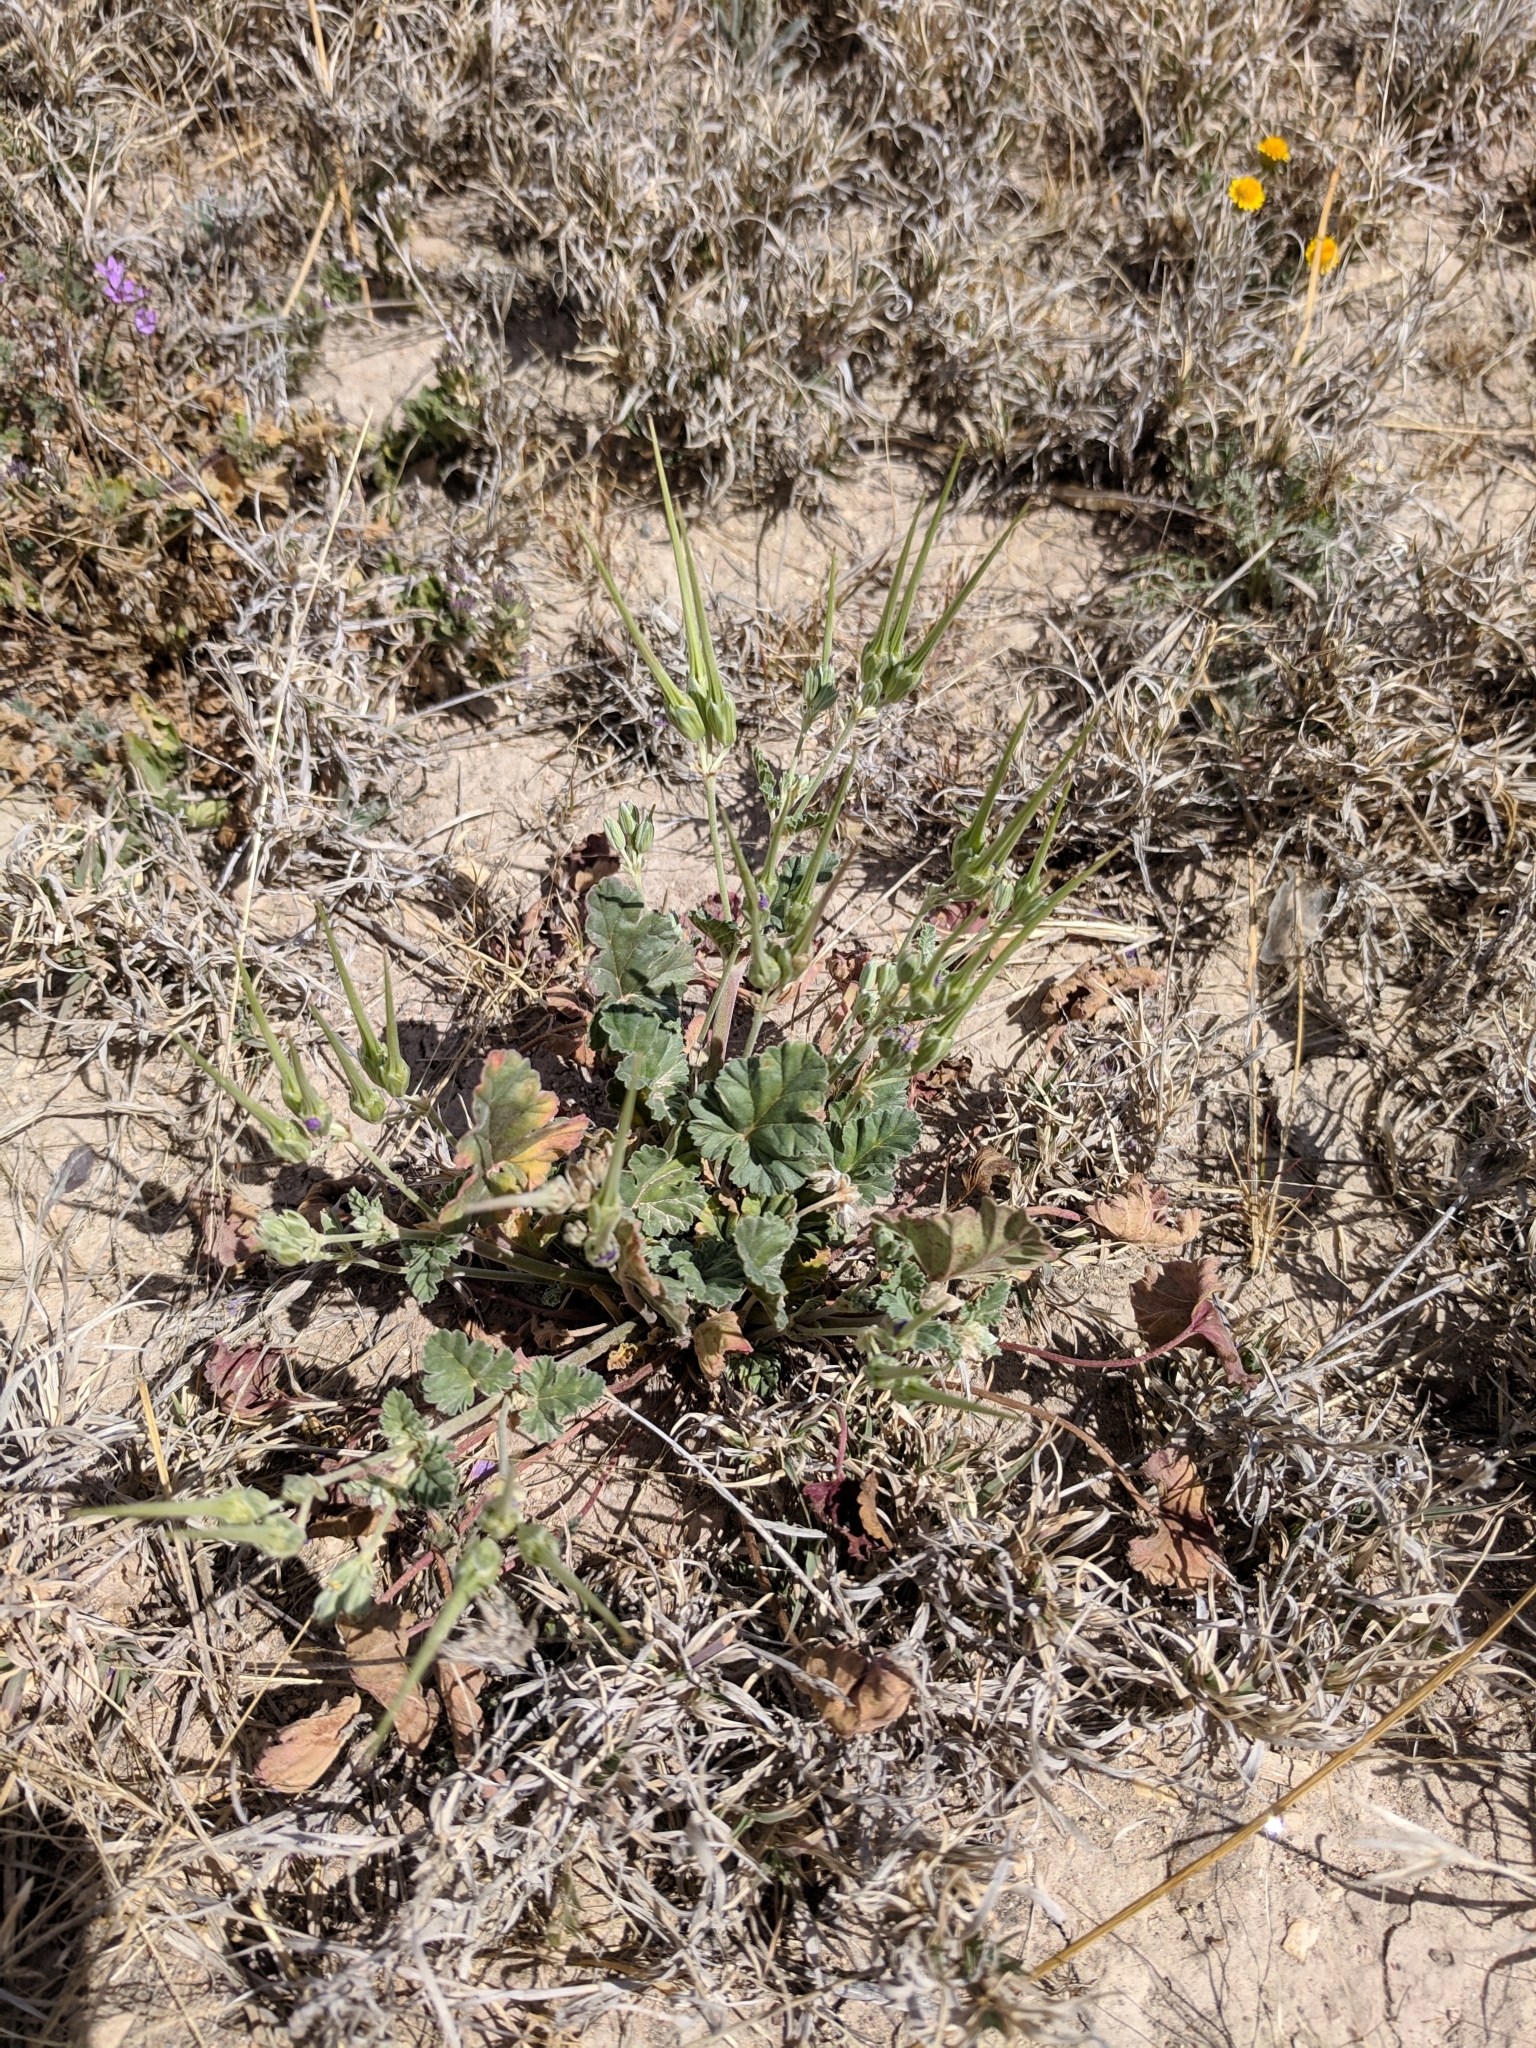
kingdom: Plantae
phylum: Tracheophyta
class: Magnoliopsida
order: Geraniales
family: Geraniaceae
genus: Erodium
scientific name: Erodium texanum
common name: Texas stork's-bill
